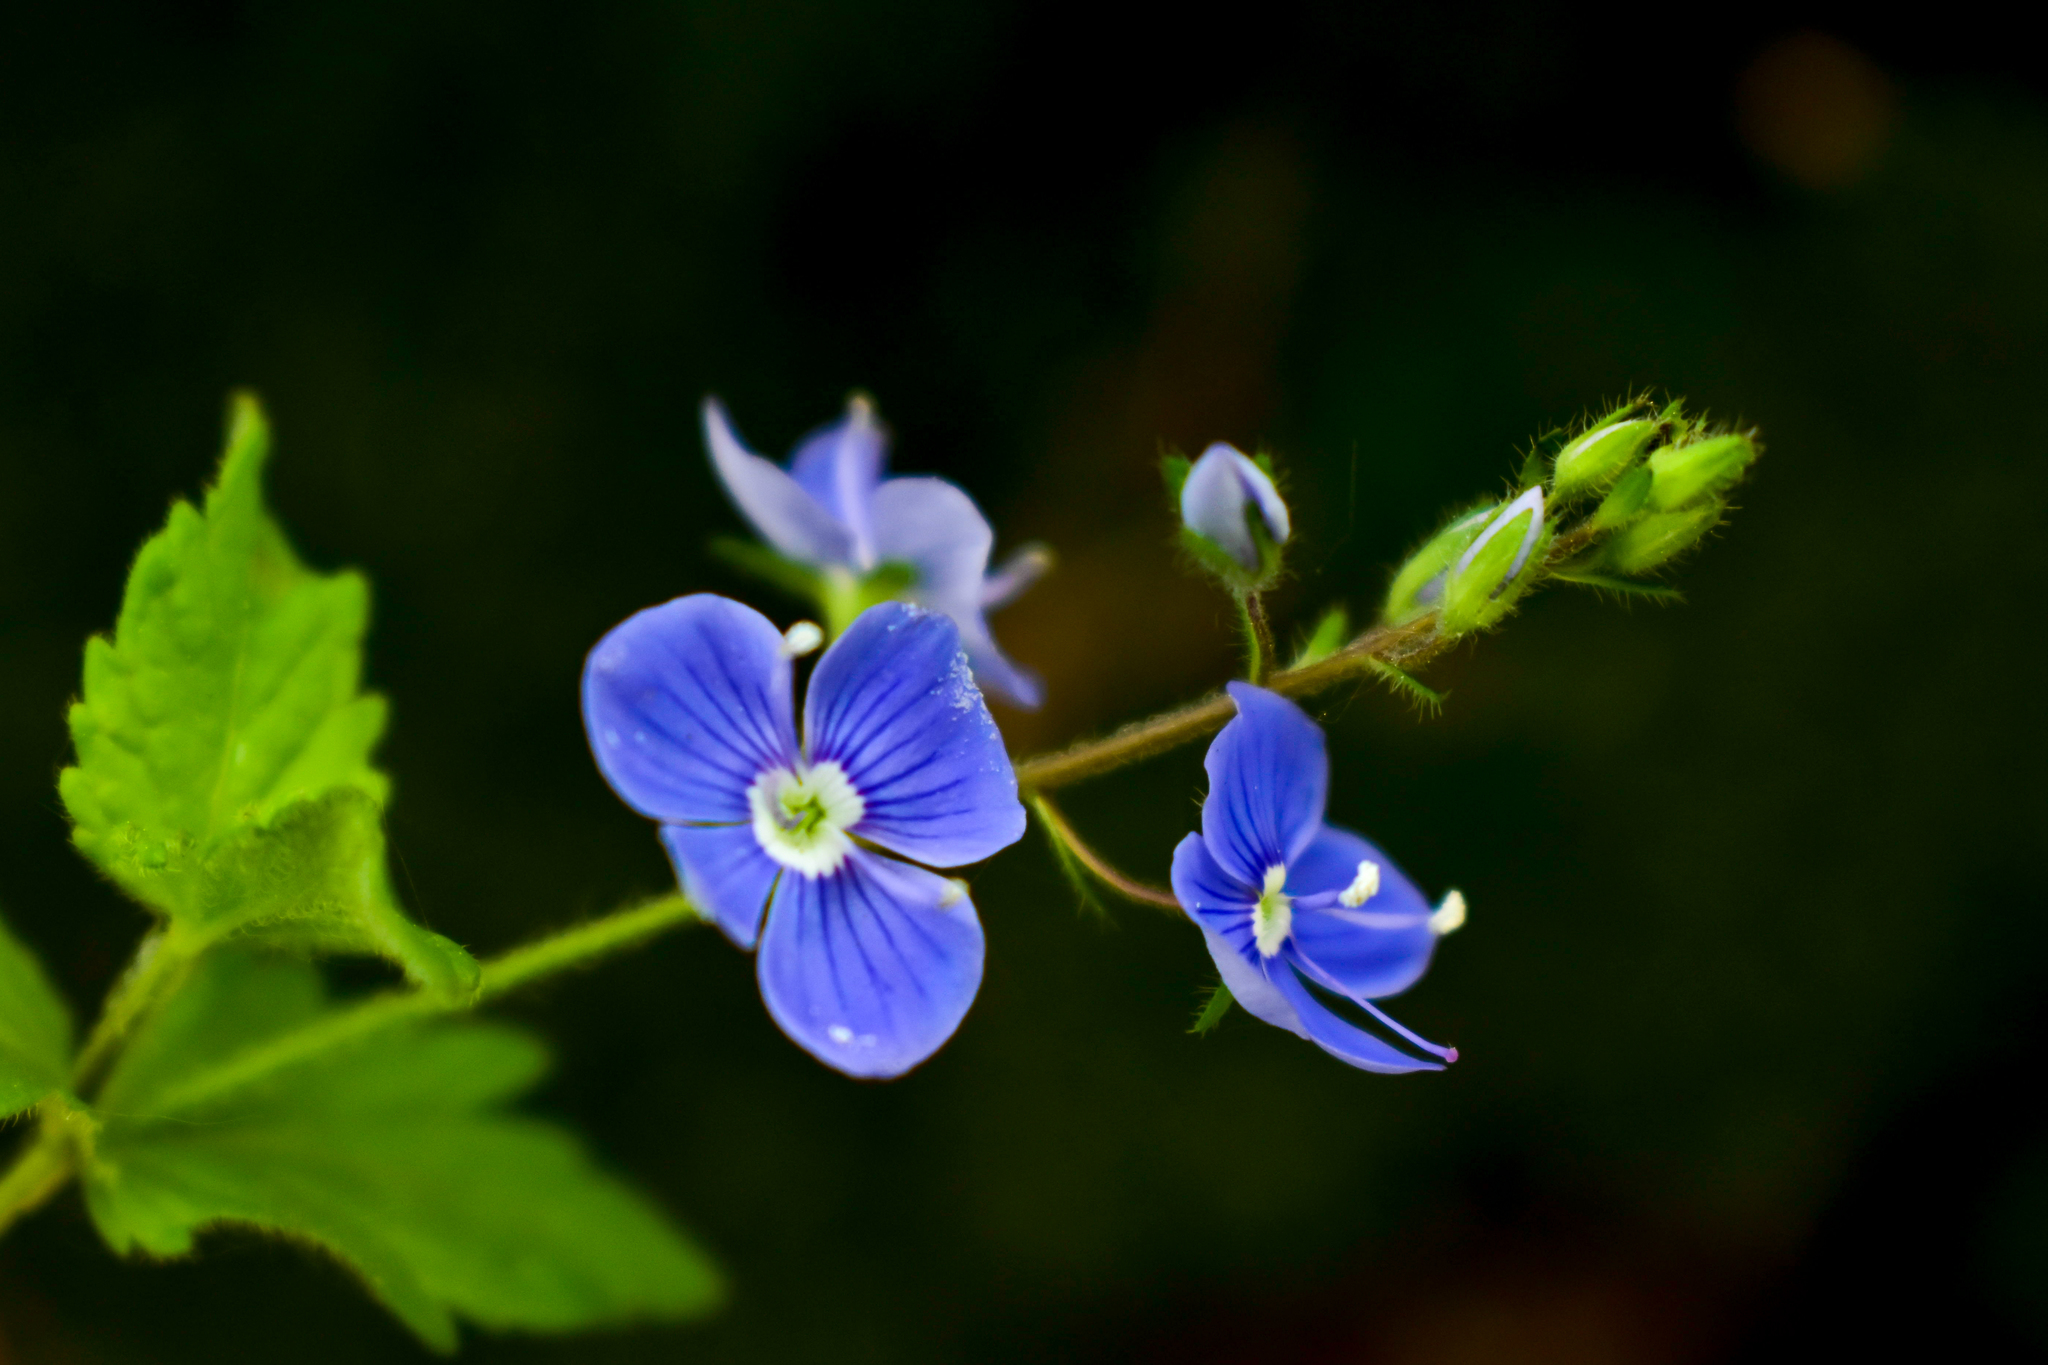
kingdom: Plantae
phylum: Tracheophyta
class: Magnoliopsida
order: Lamiales
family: Plantaginaceae
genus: Veronica
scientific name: Veronica chamaedrys
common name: Germander speedwell
